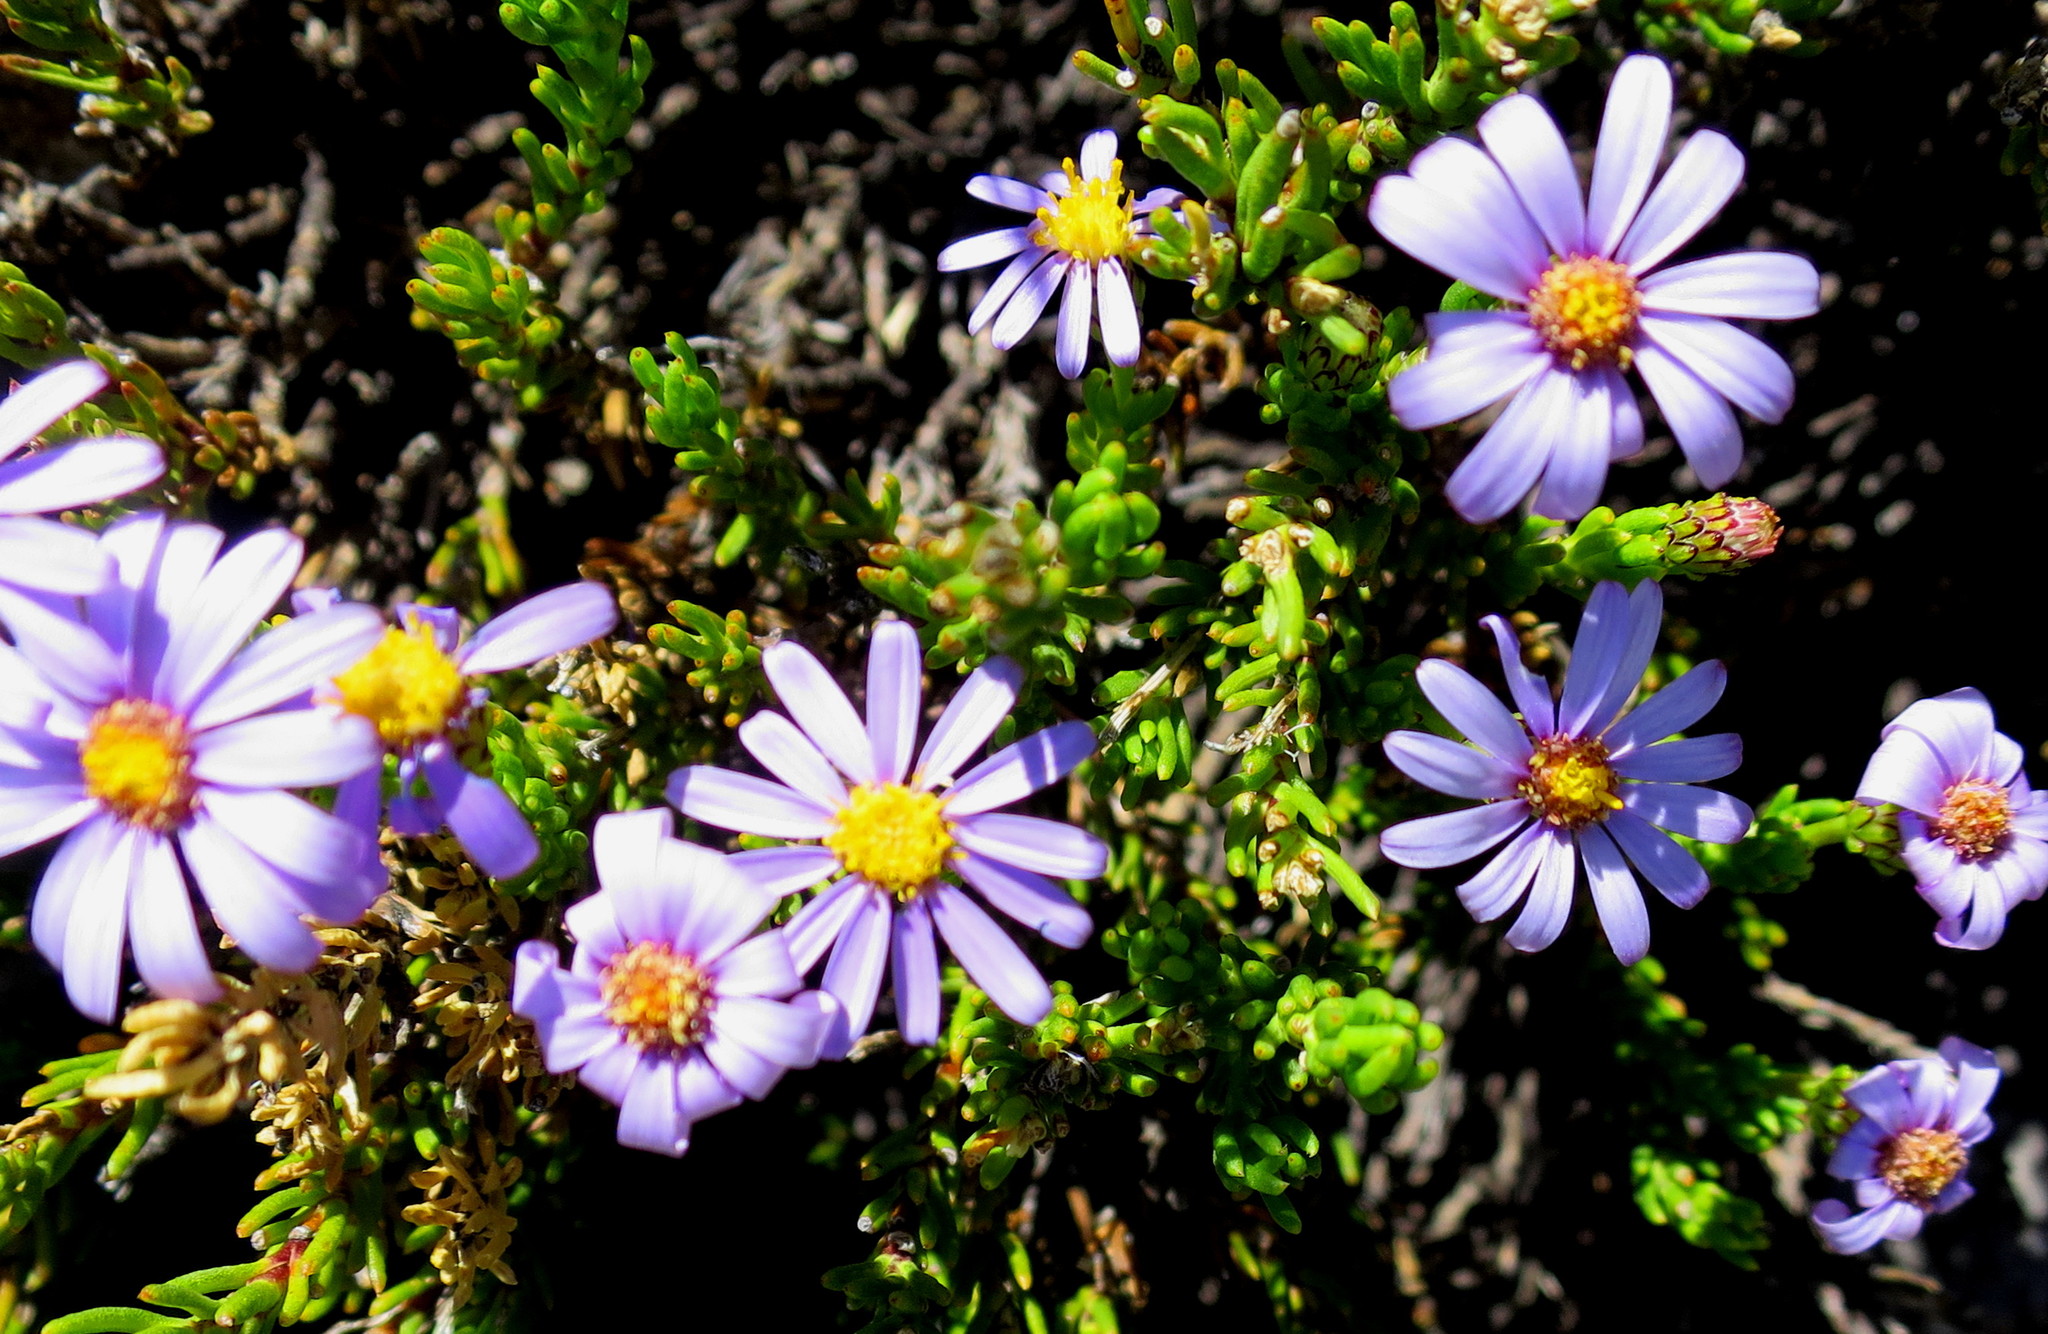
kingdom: Plantae
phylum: Tracheophyta
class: Magnoliopsida
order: Asterales
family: Asteraceae
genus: Felicia
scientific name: Felicia oleosa
